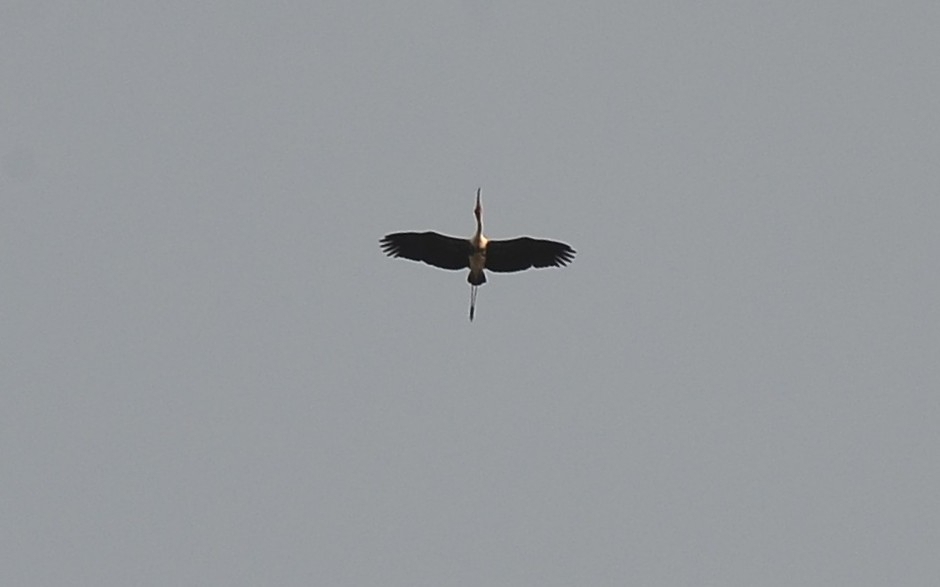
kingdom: Animalia
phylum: Chordata
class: Aves
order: Ciconiiformes
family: Ciconiidae
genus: Mycteria
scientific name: Mycteria leucocephala
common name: Painted stork
